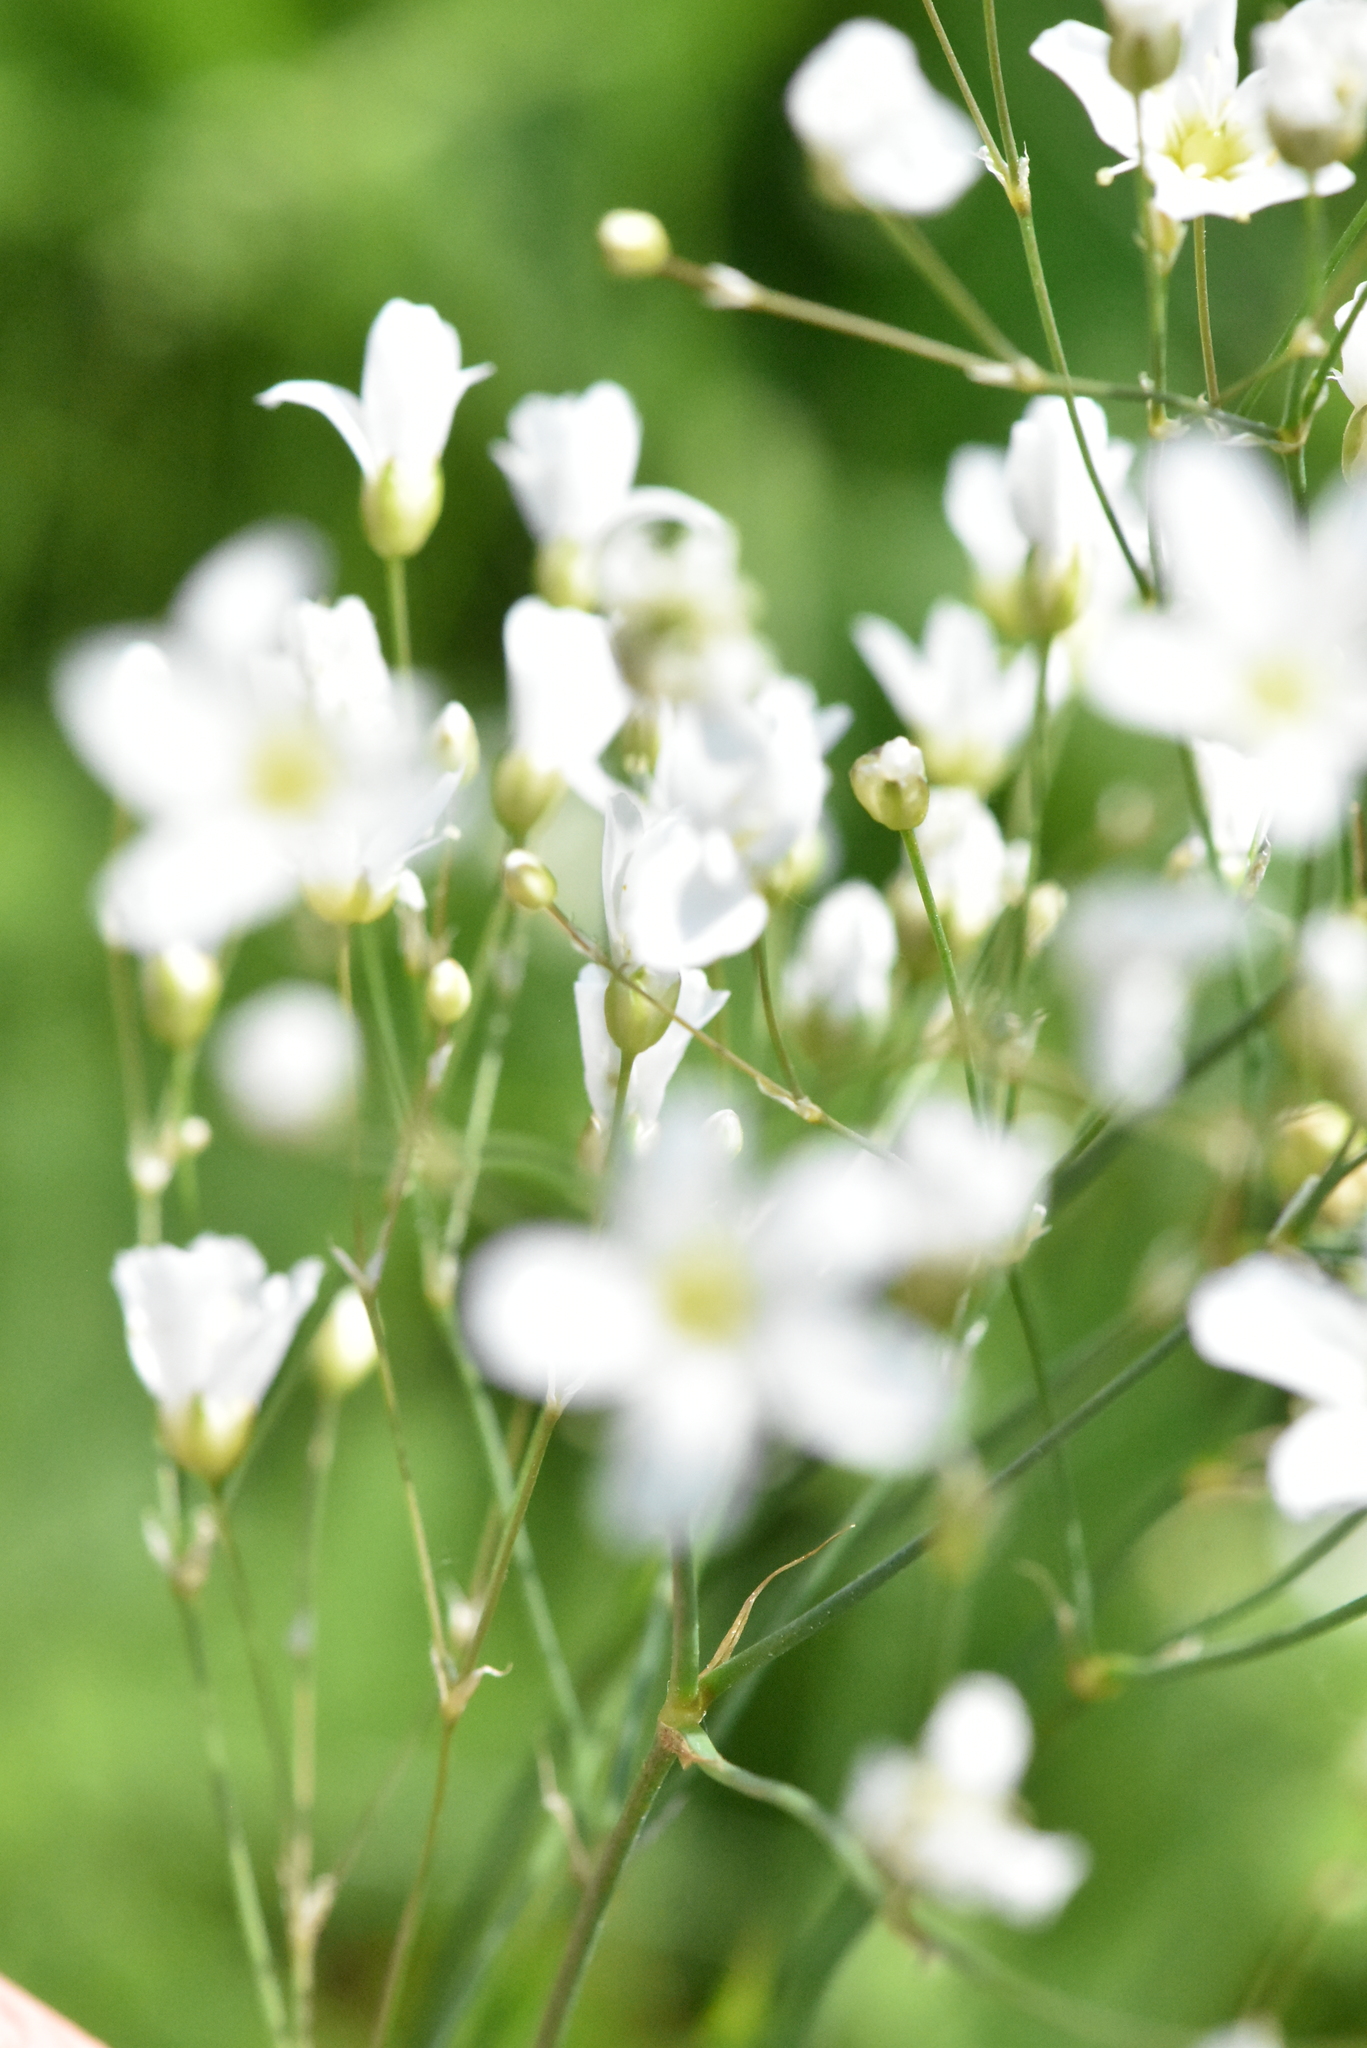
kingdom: Plantae
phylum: Tracheophyta
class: Magnoliopsida
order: Caryophyllales
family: Caryophyllaceae
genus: Eremogone
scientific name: Eremogone saxatilis
